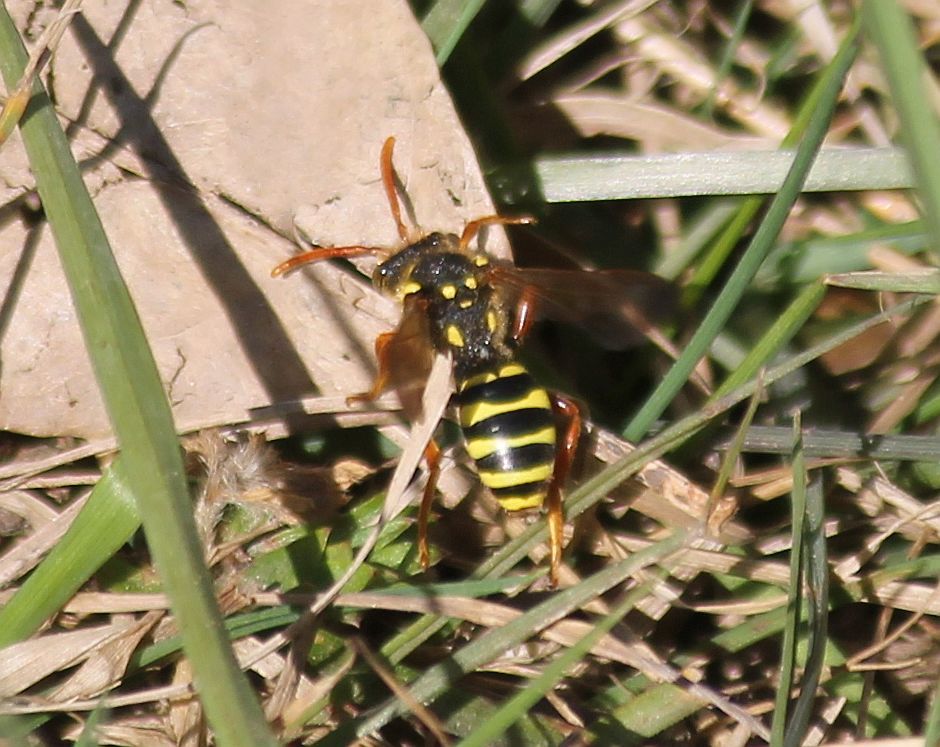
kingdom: Animalia
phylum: Arthropoda
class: Insecta
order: Hymenoptera
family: Apidae
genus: Nomada
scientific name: Nomada goodeniana
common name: Gooden's nomad bee
